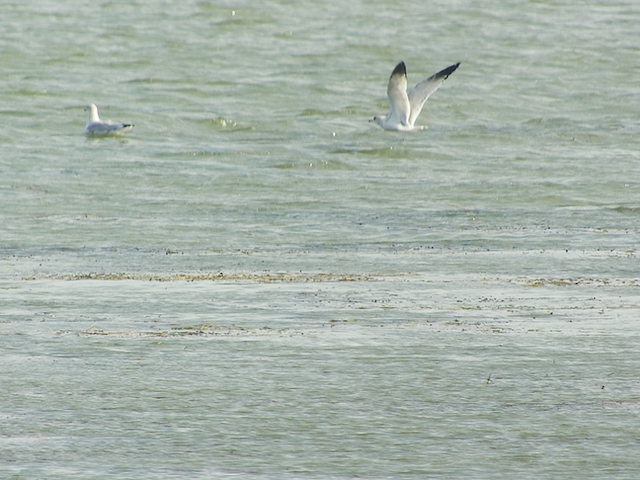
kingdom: Animalia
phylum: Chordata
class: Aves
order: Charadriiformes
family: Laridae
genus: Larus
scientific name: Larus delawarensis
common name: Ring-billed gull
